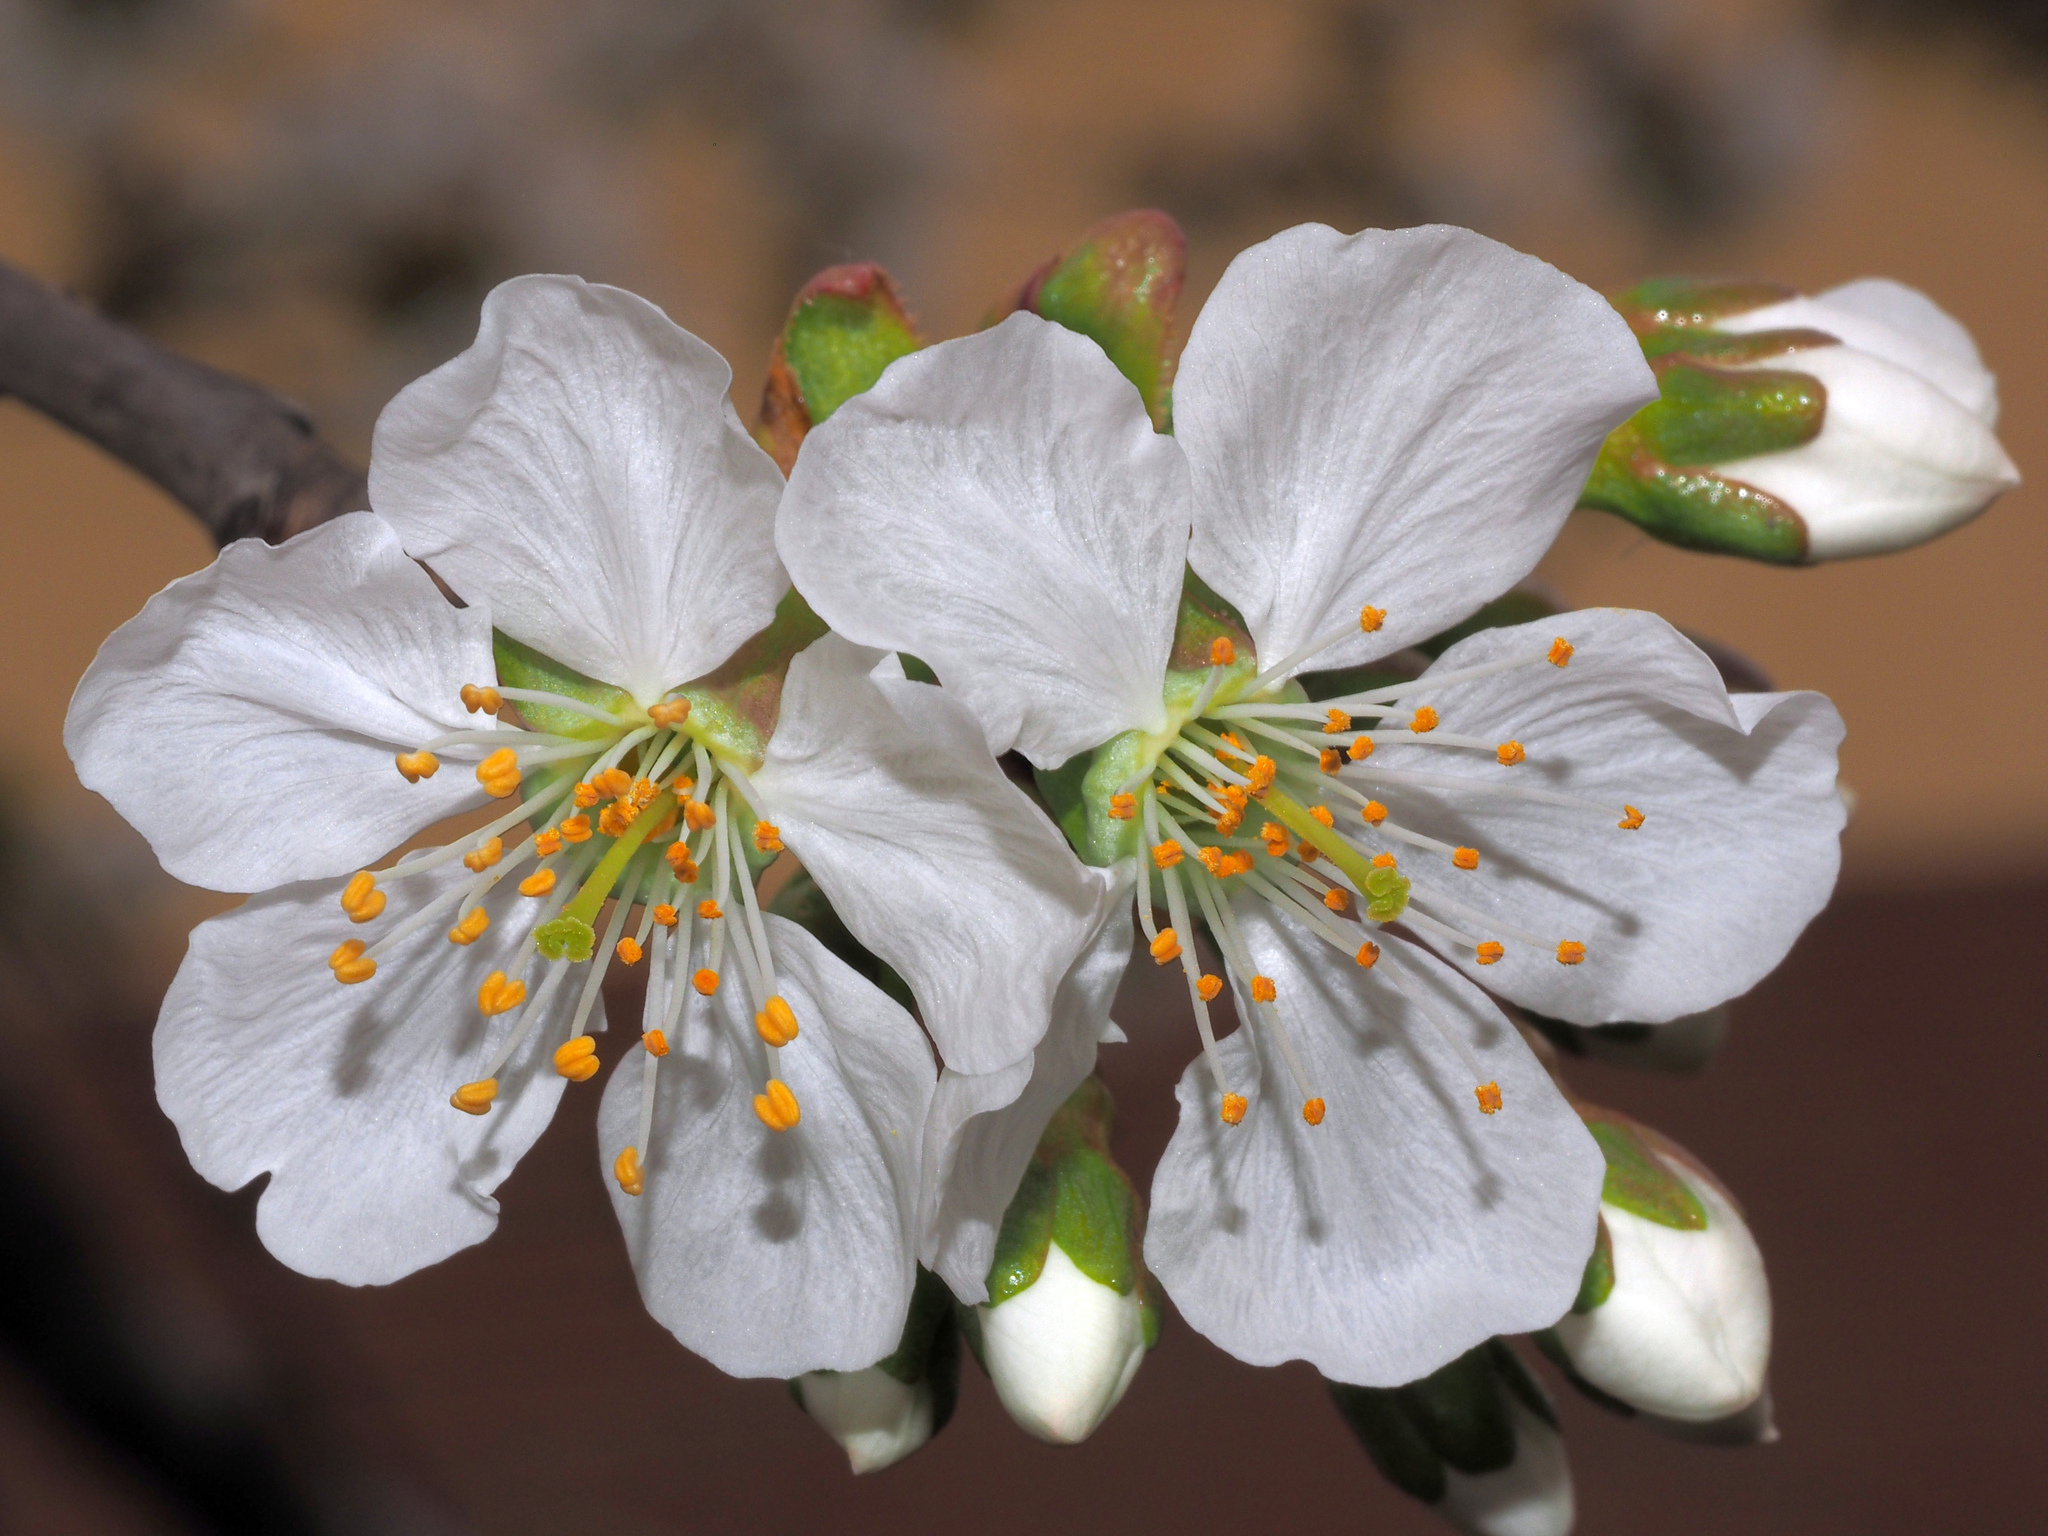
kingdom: Plantae
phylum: Tracheophyta
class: Magnoliopsida
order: Rosales
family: Rosaceae
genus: Prunus
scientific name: Prunus avium
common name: Sweet cherry
